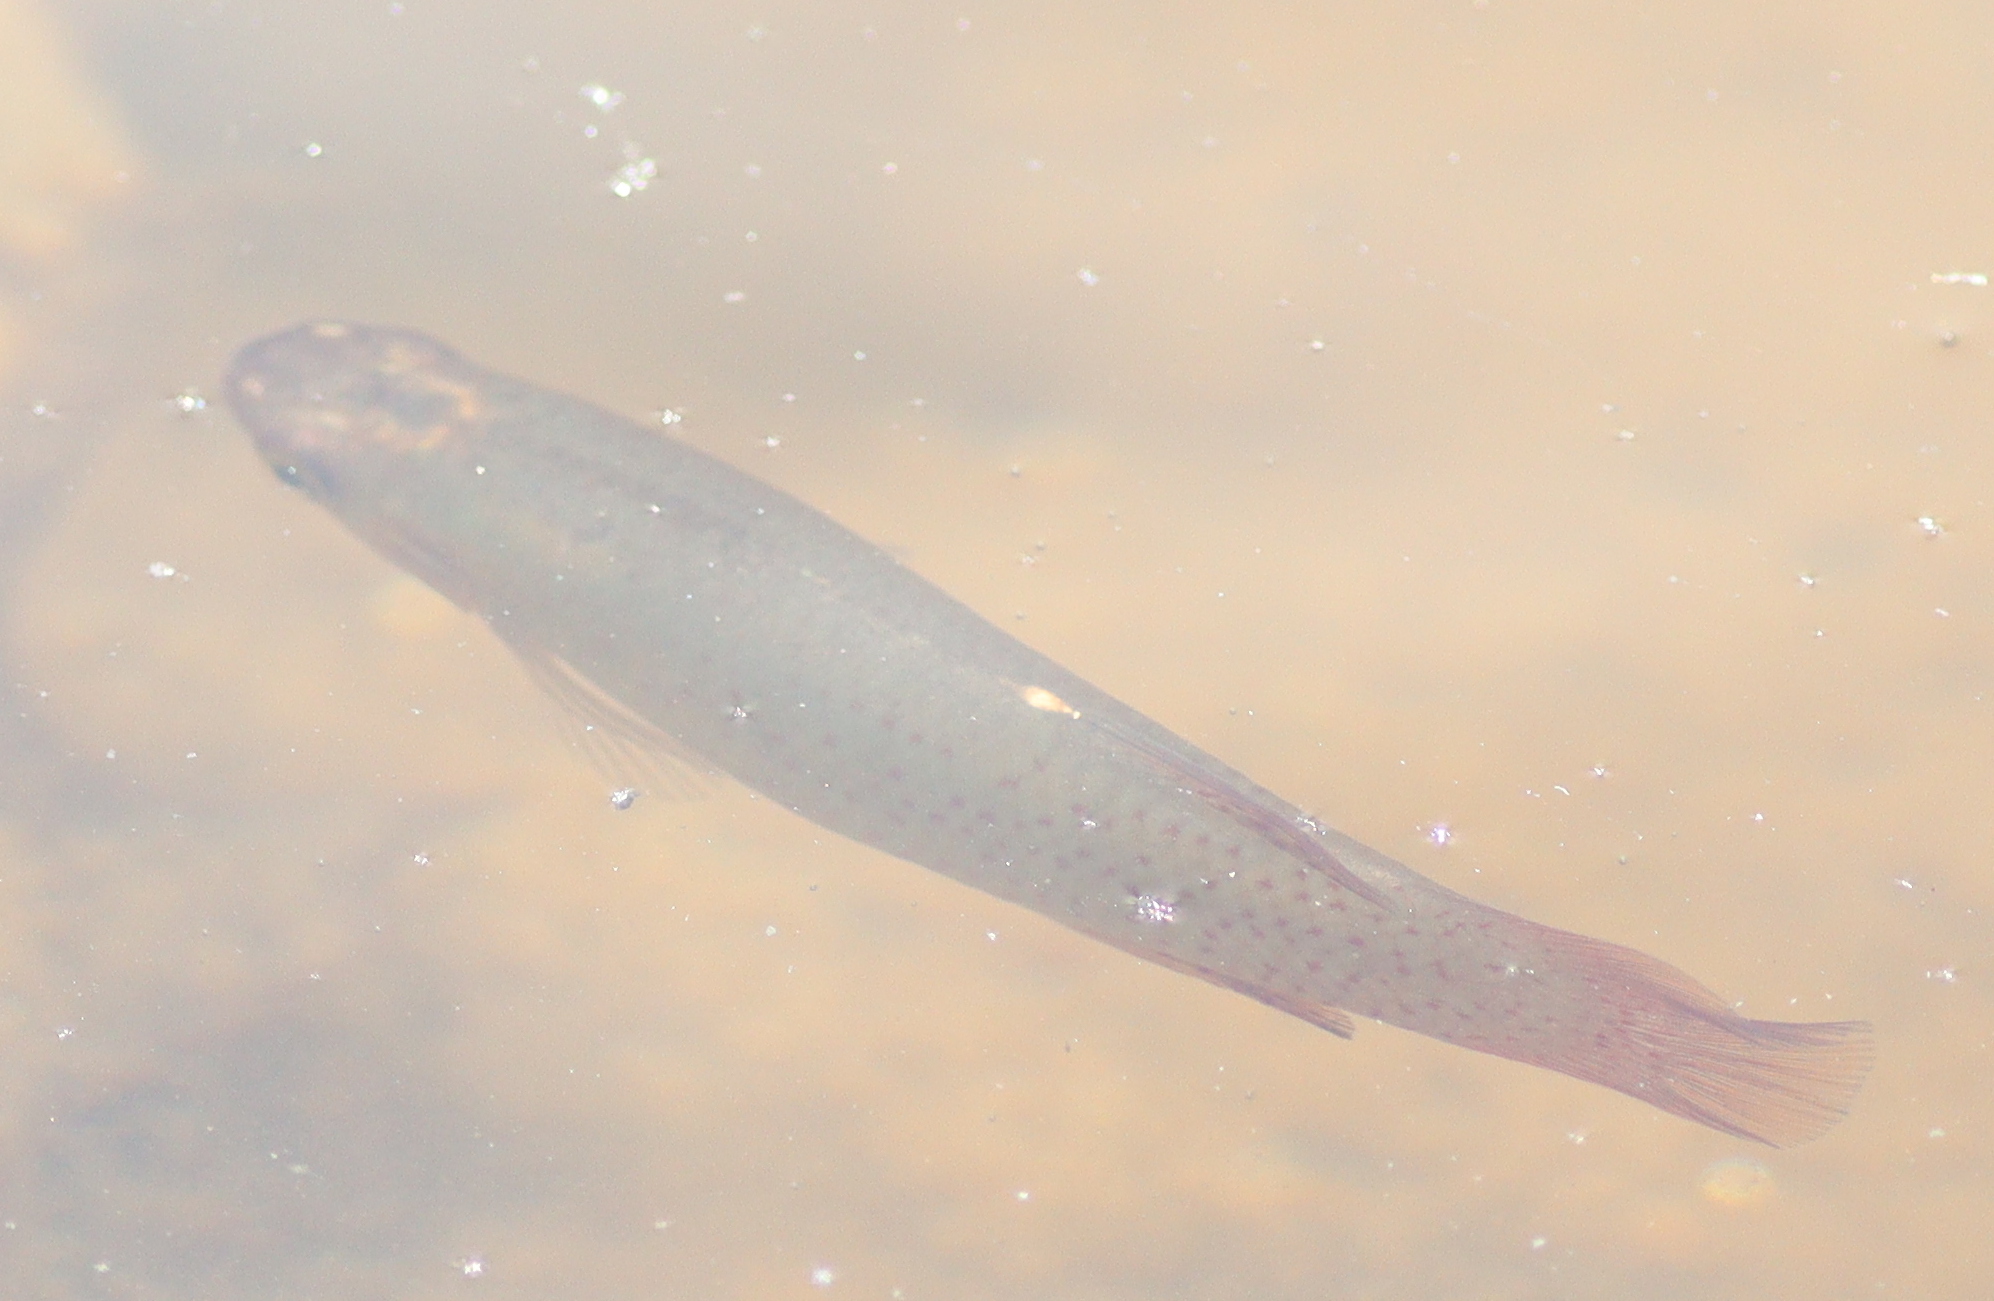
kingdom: Animalia
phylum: Chordata
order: Cyprinodontiformes
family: Fundulidae
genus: Fundulus
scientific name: Fundulus chrysotus
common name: Golden topminnow
